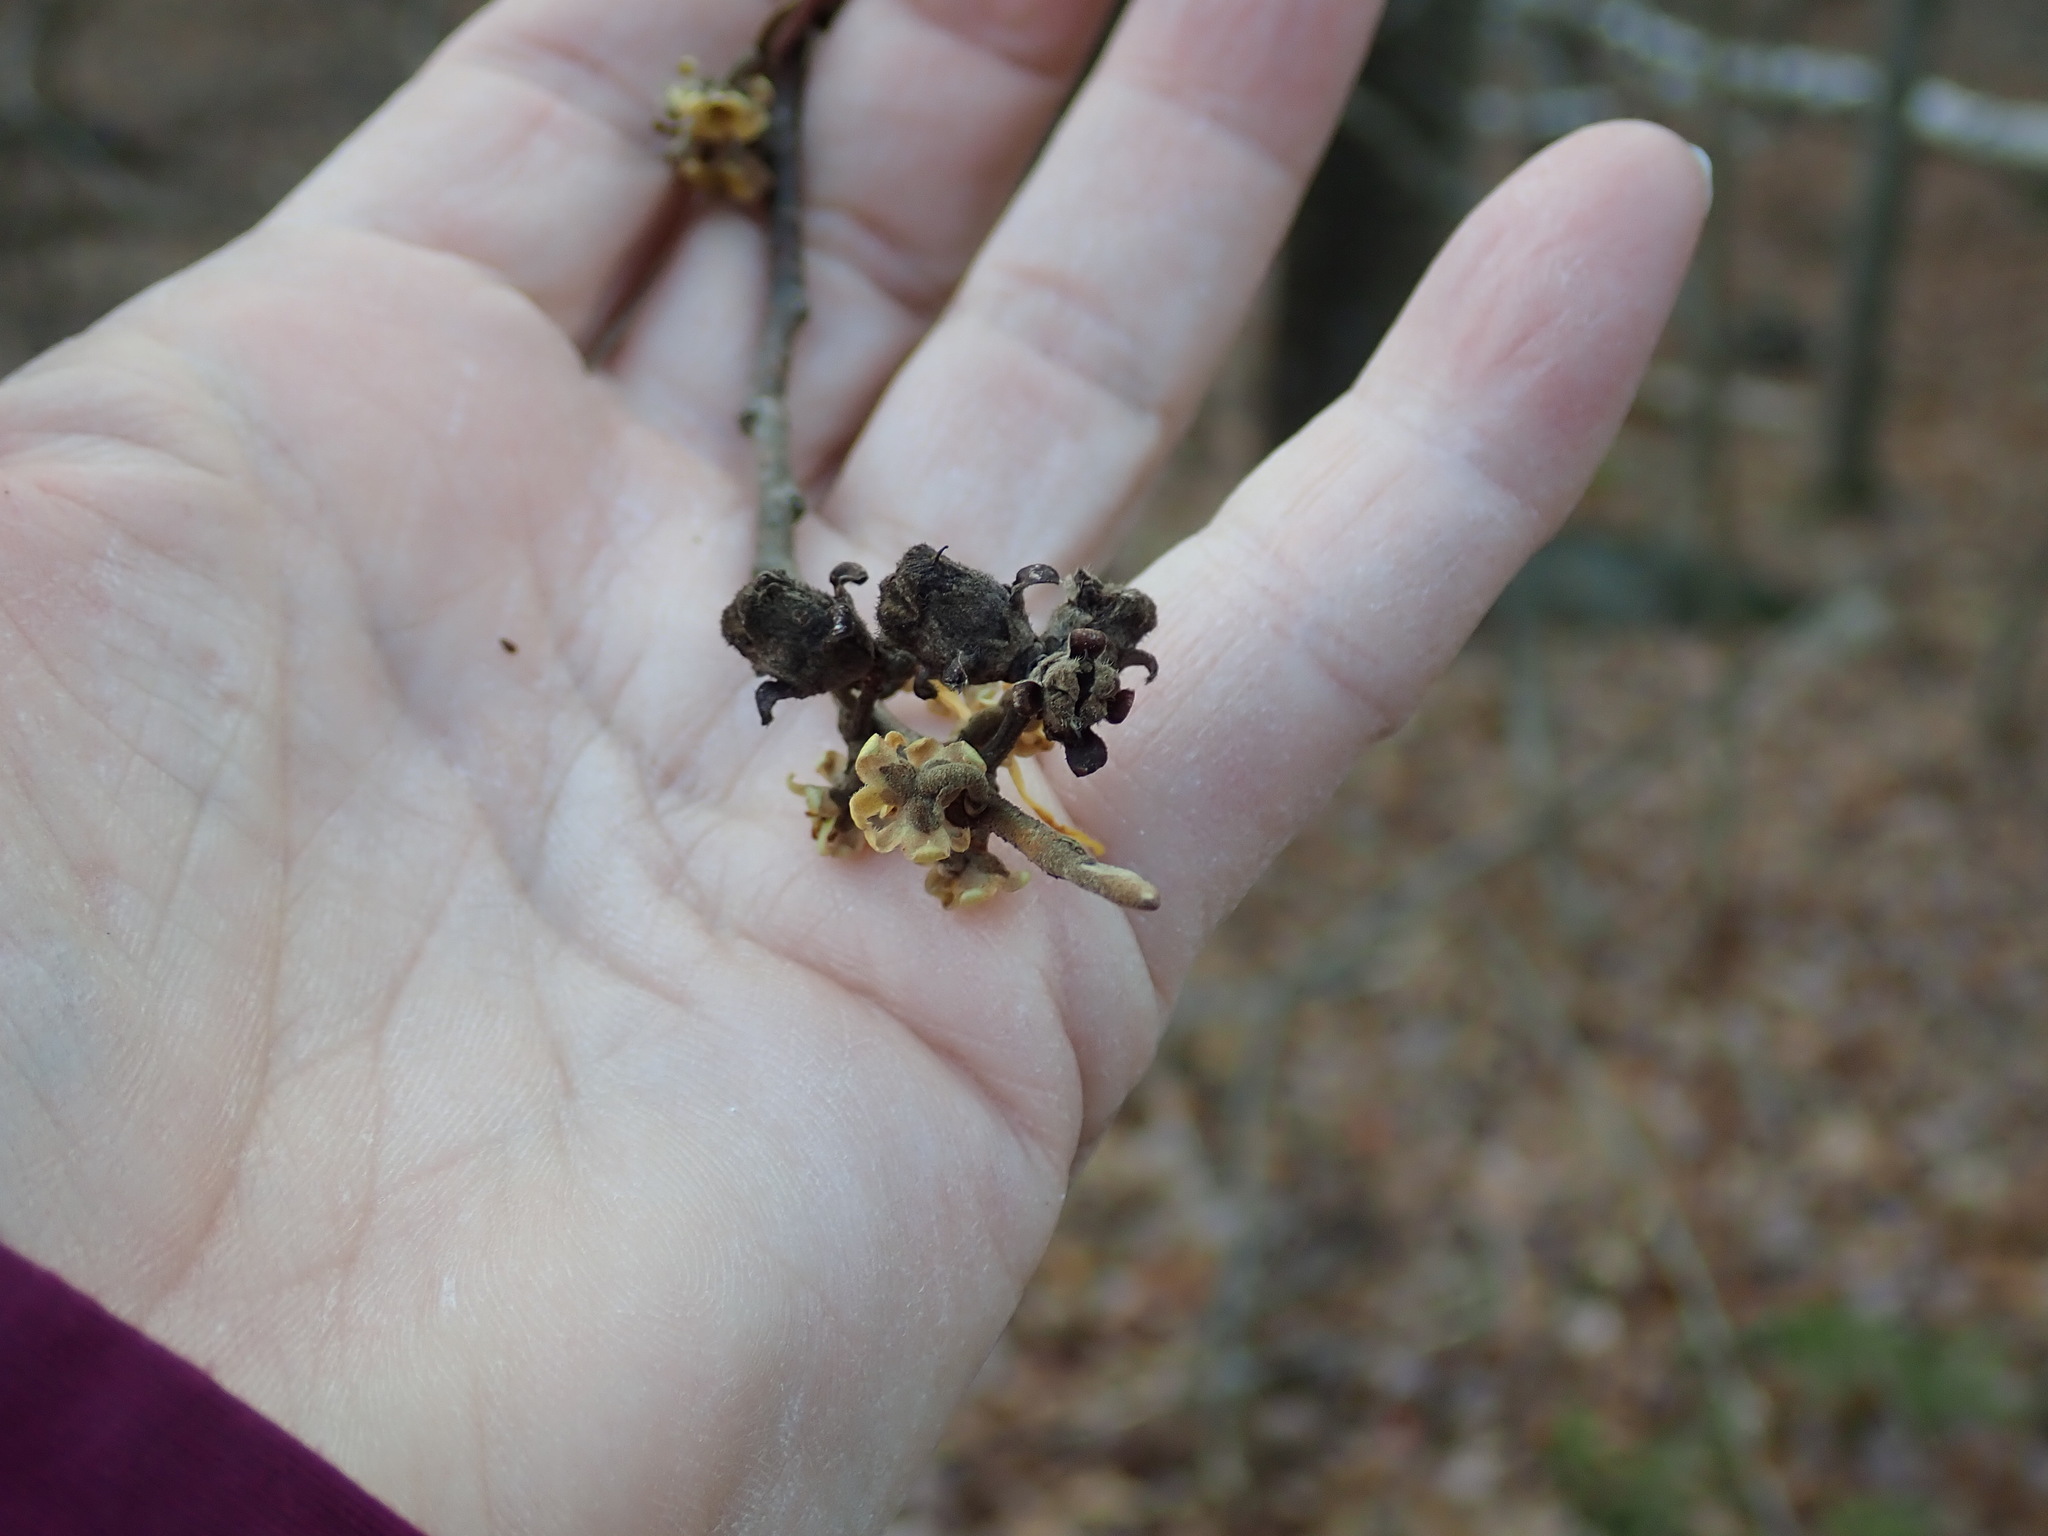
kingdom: Plantae
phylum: Tracheophyta
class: Magnoliopsida
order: Saxifragales
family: Hamamelidaceae
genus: Hamamelis
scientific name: Hamamelis virginiana
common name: Witch-hazel
